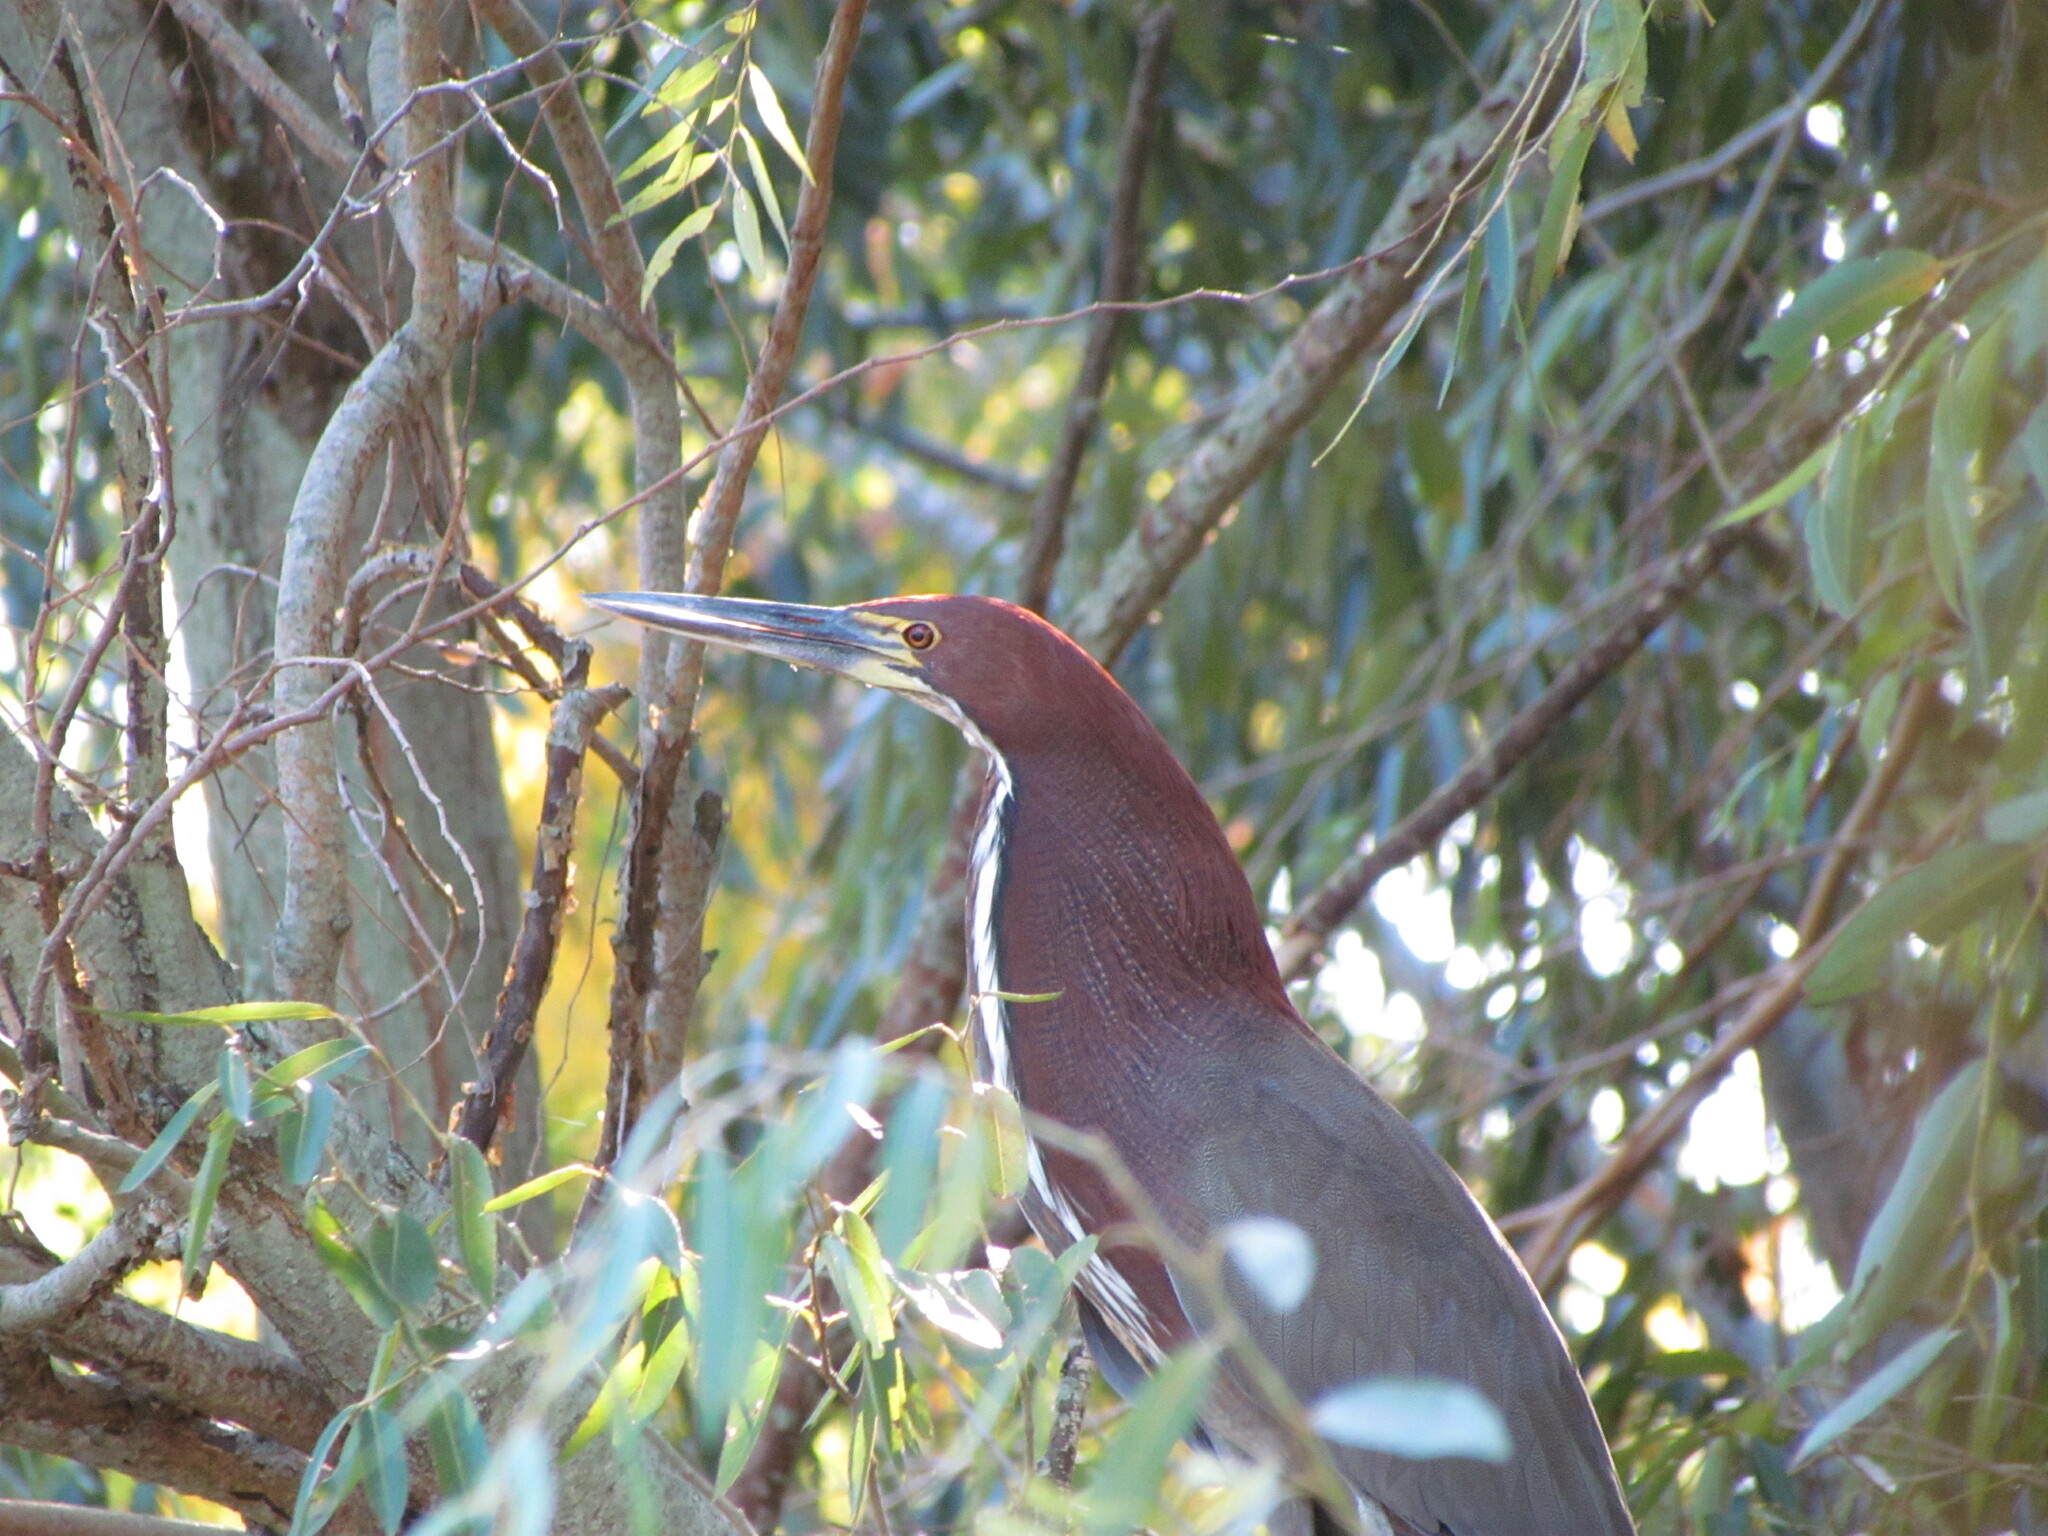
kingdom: Animalia
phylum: Chordata
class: Aves
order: Pelecaniformes
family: Ardeidae
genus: Tigrisoma
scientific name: Tigrisoma lineatum
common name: Rufescent tiger-heron
